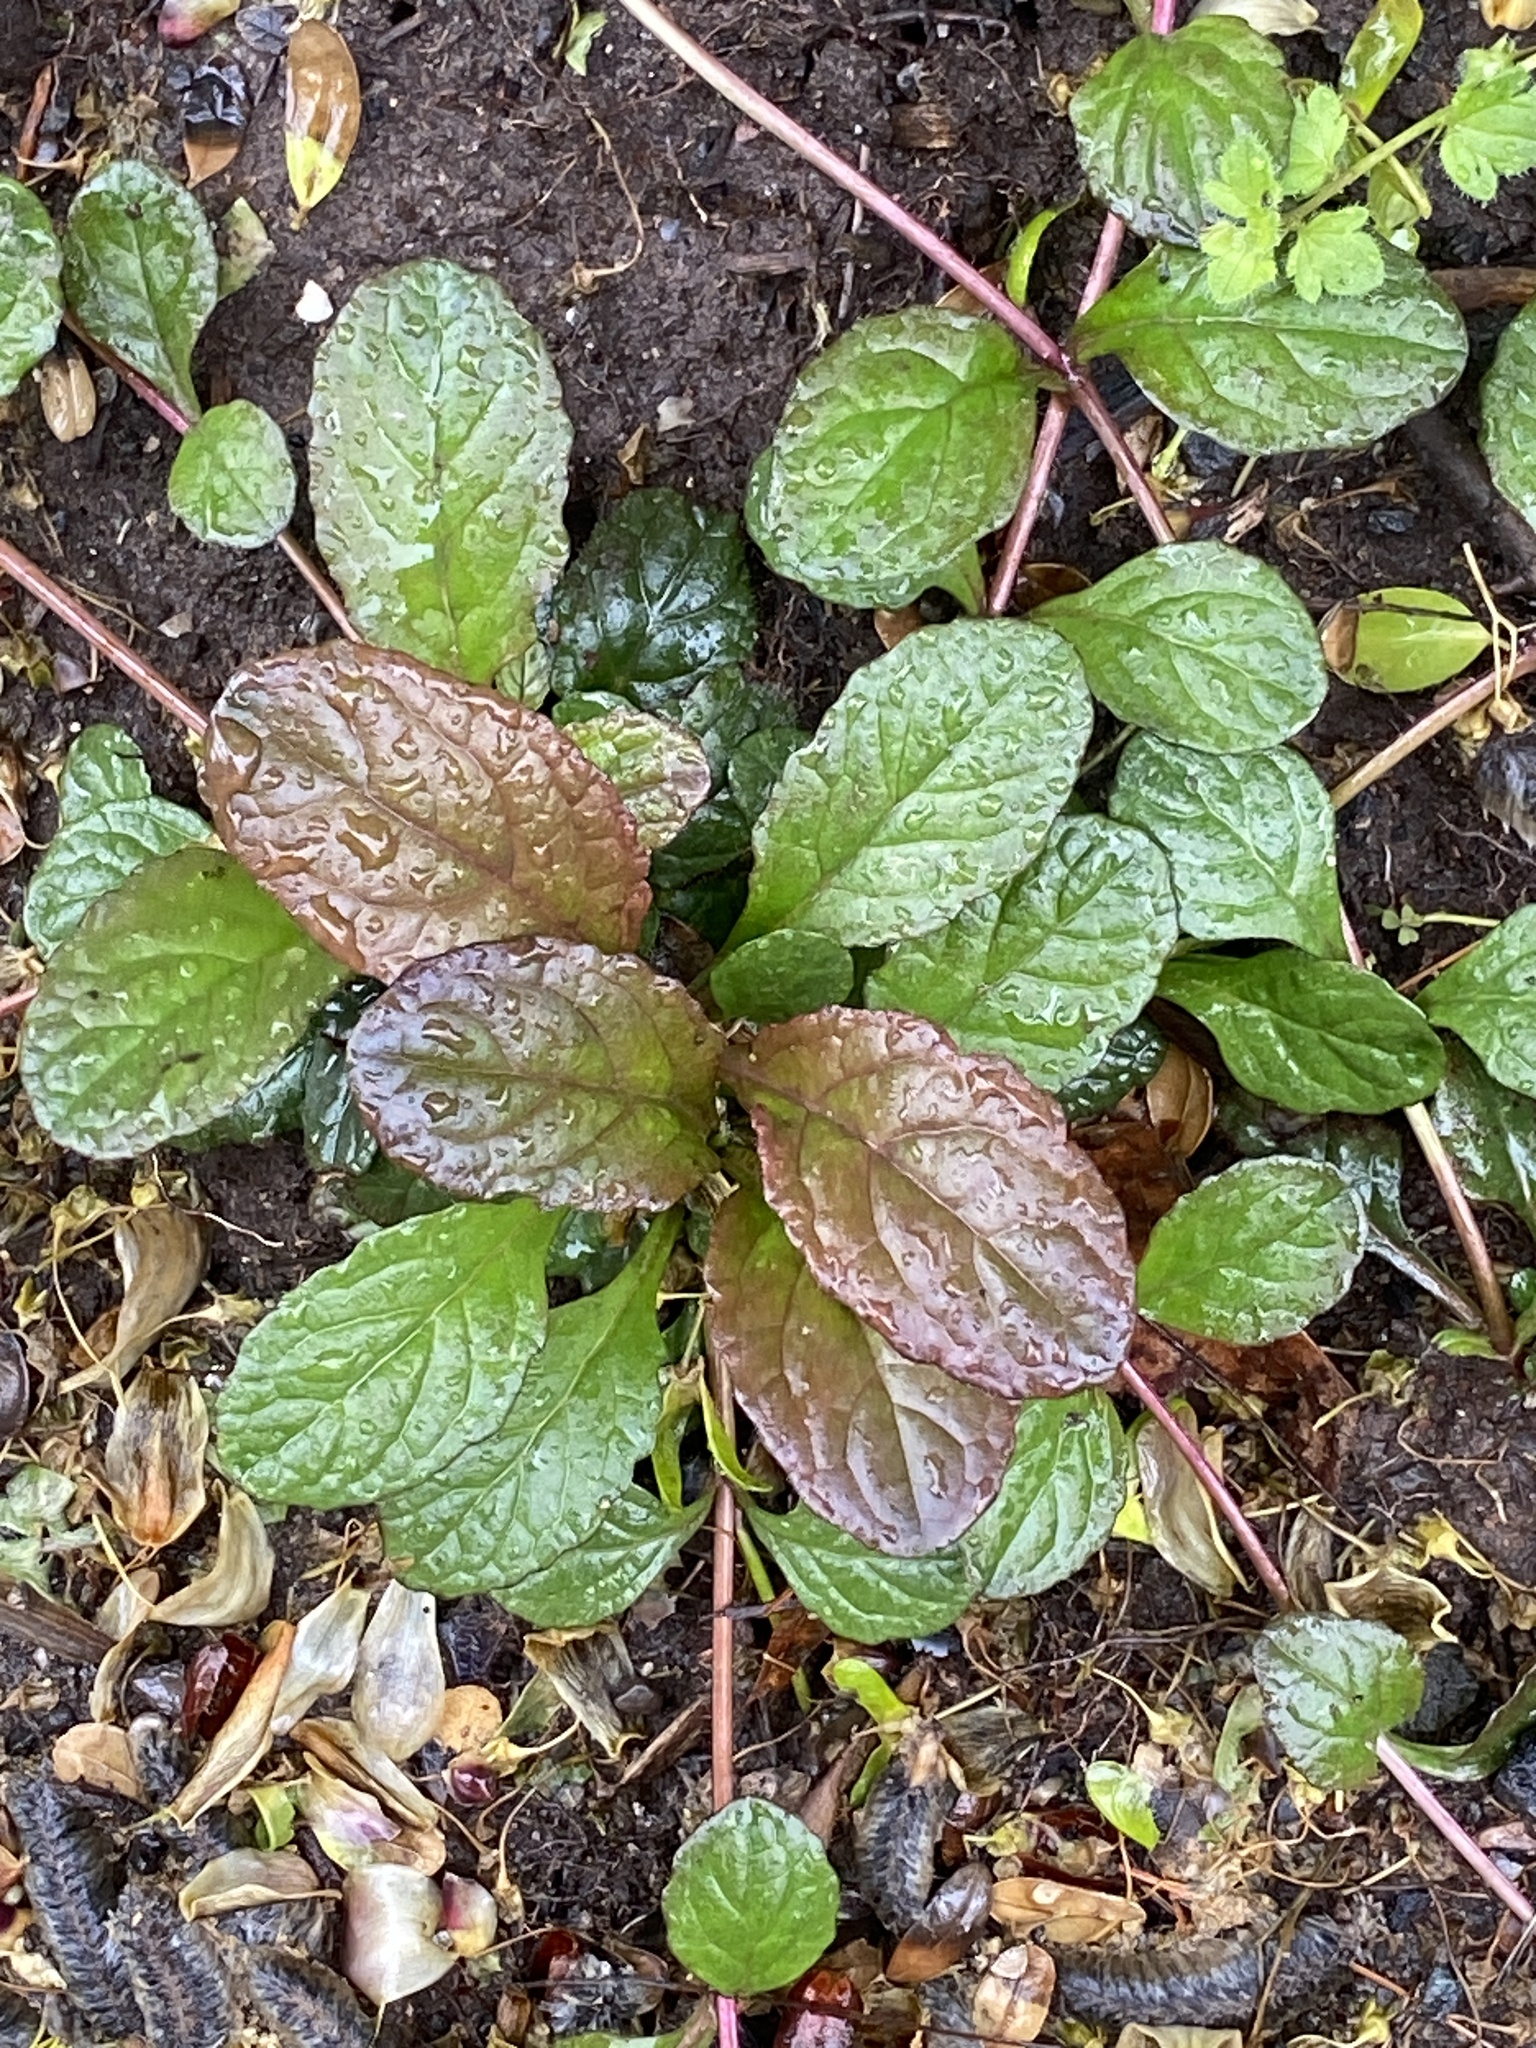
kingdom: Plantae
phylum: Tracheophyta
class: Magnoliopsida
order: Lamiales
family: Lamiaceae
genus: Ajuga
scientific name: Ajuga reptans
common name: Bugle
